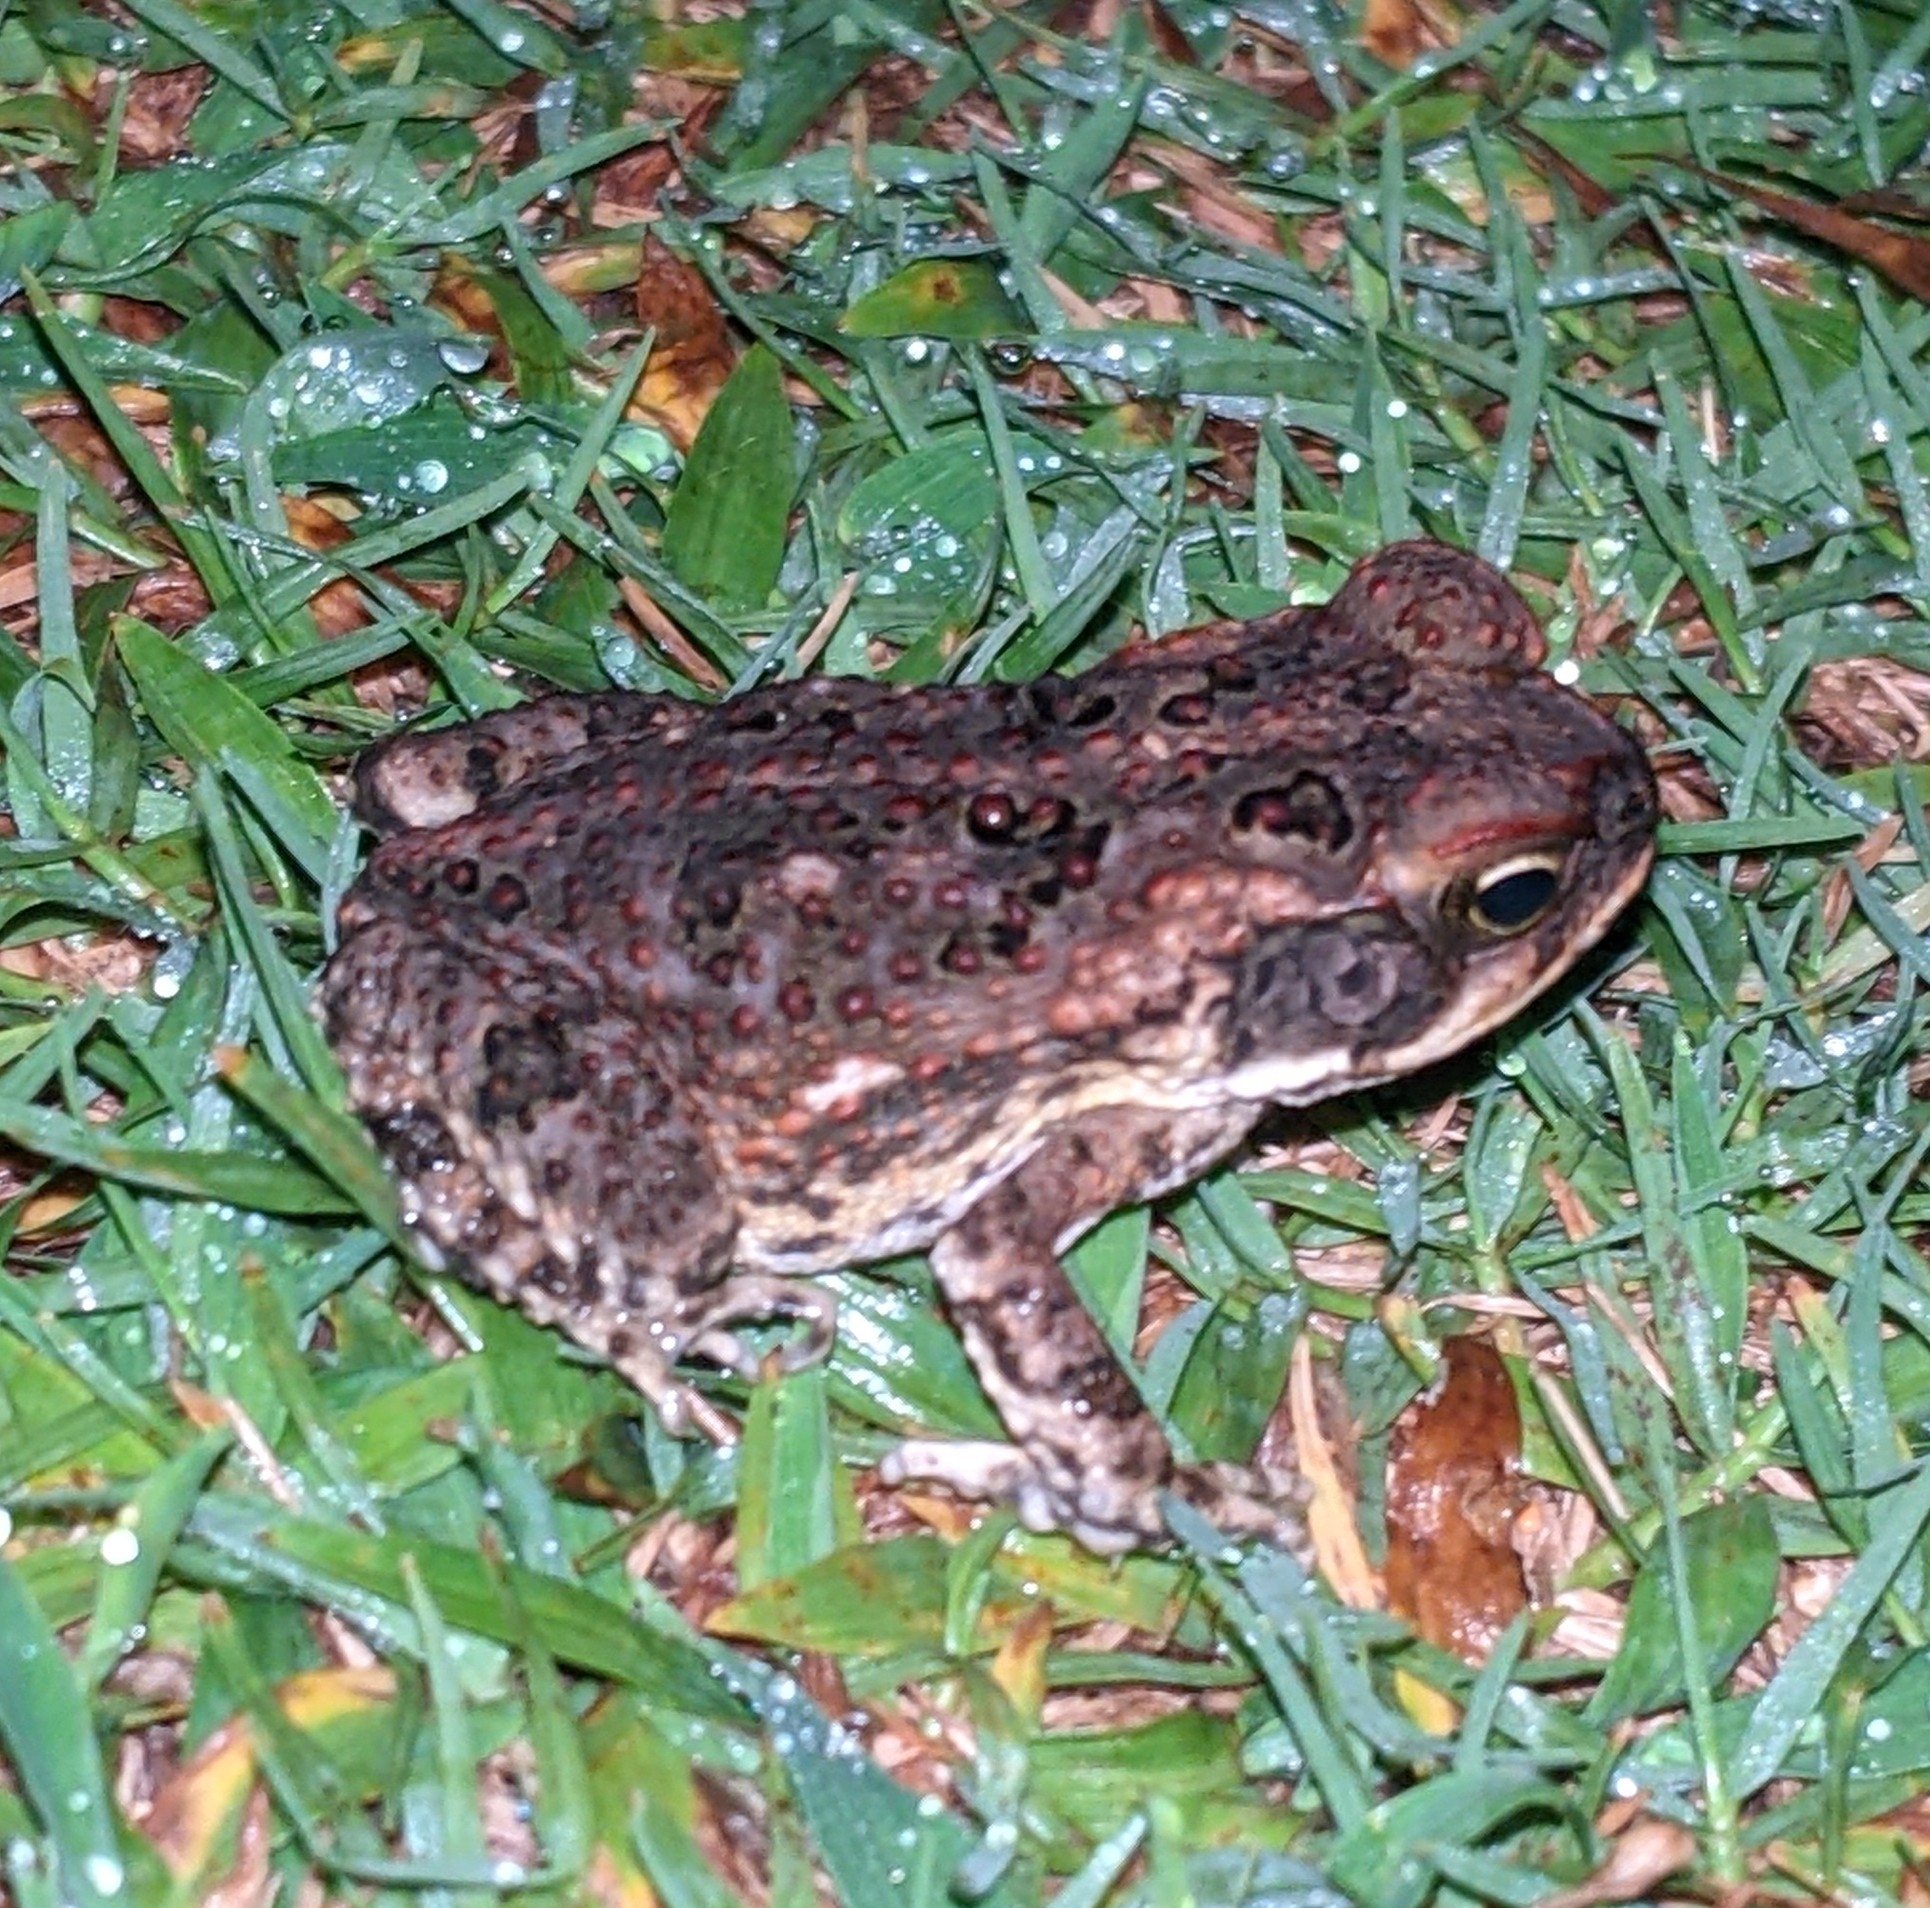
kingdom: Animalia
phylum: Chordata
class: Amphibia
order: Anura
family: Bufonidae
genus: Rhinella
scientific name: Rhinella marina
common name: Cane toad
